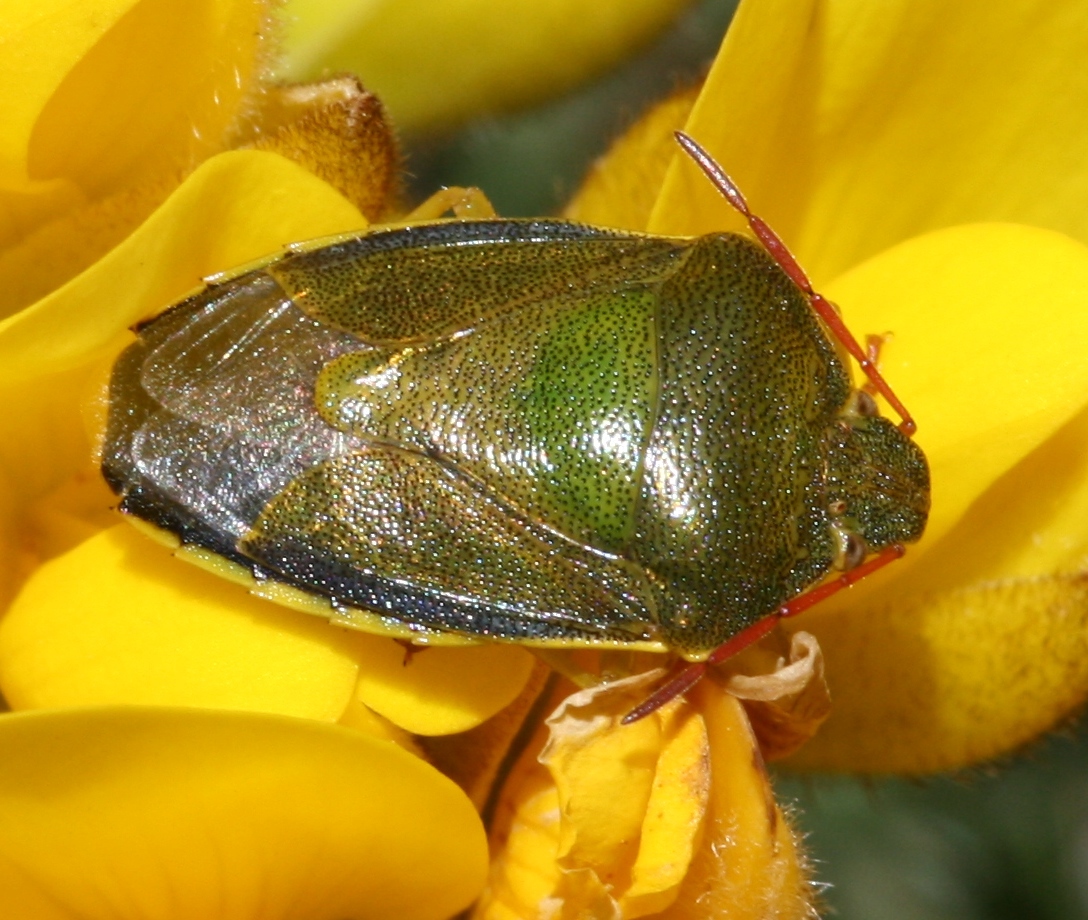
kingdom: Animalia
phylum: Arthropoda
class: Insecta
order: Hemiptera
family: Pentatomidae
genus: Piezodorus
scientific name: Piezodorus lituratus
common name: Stink bug
